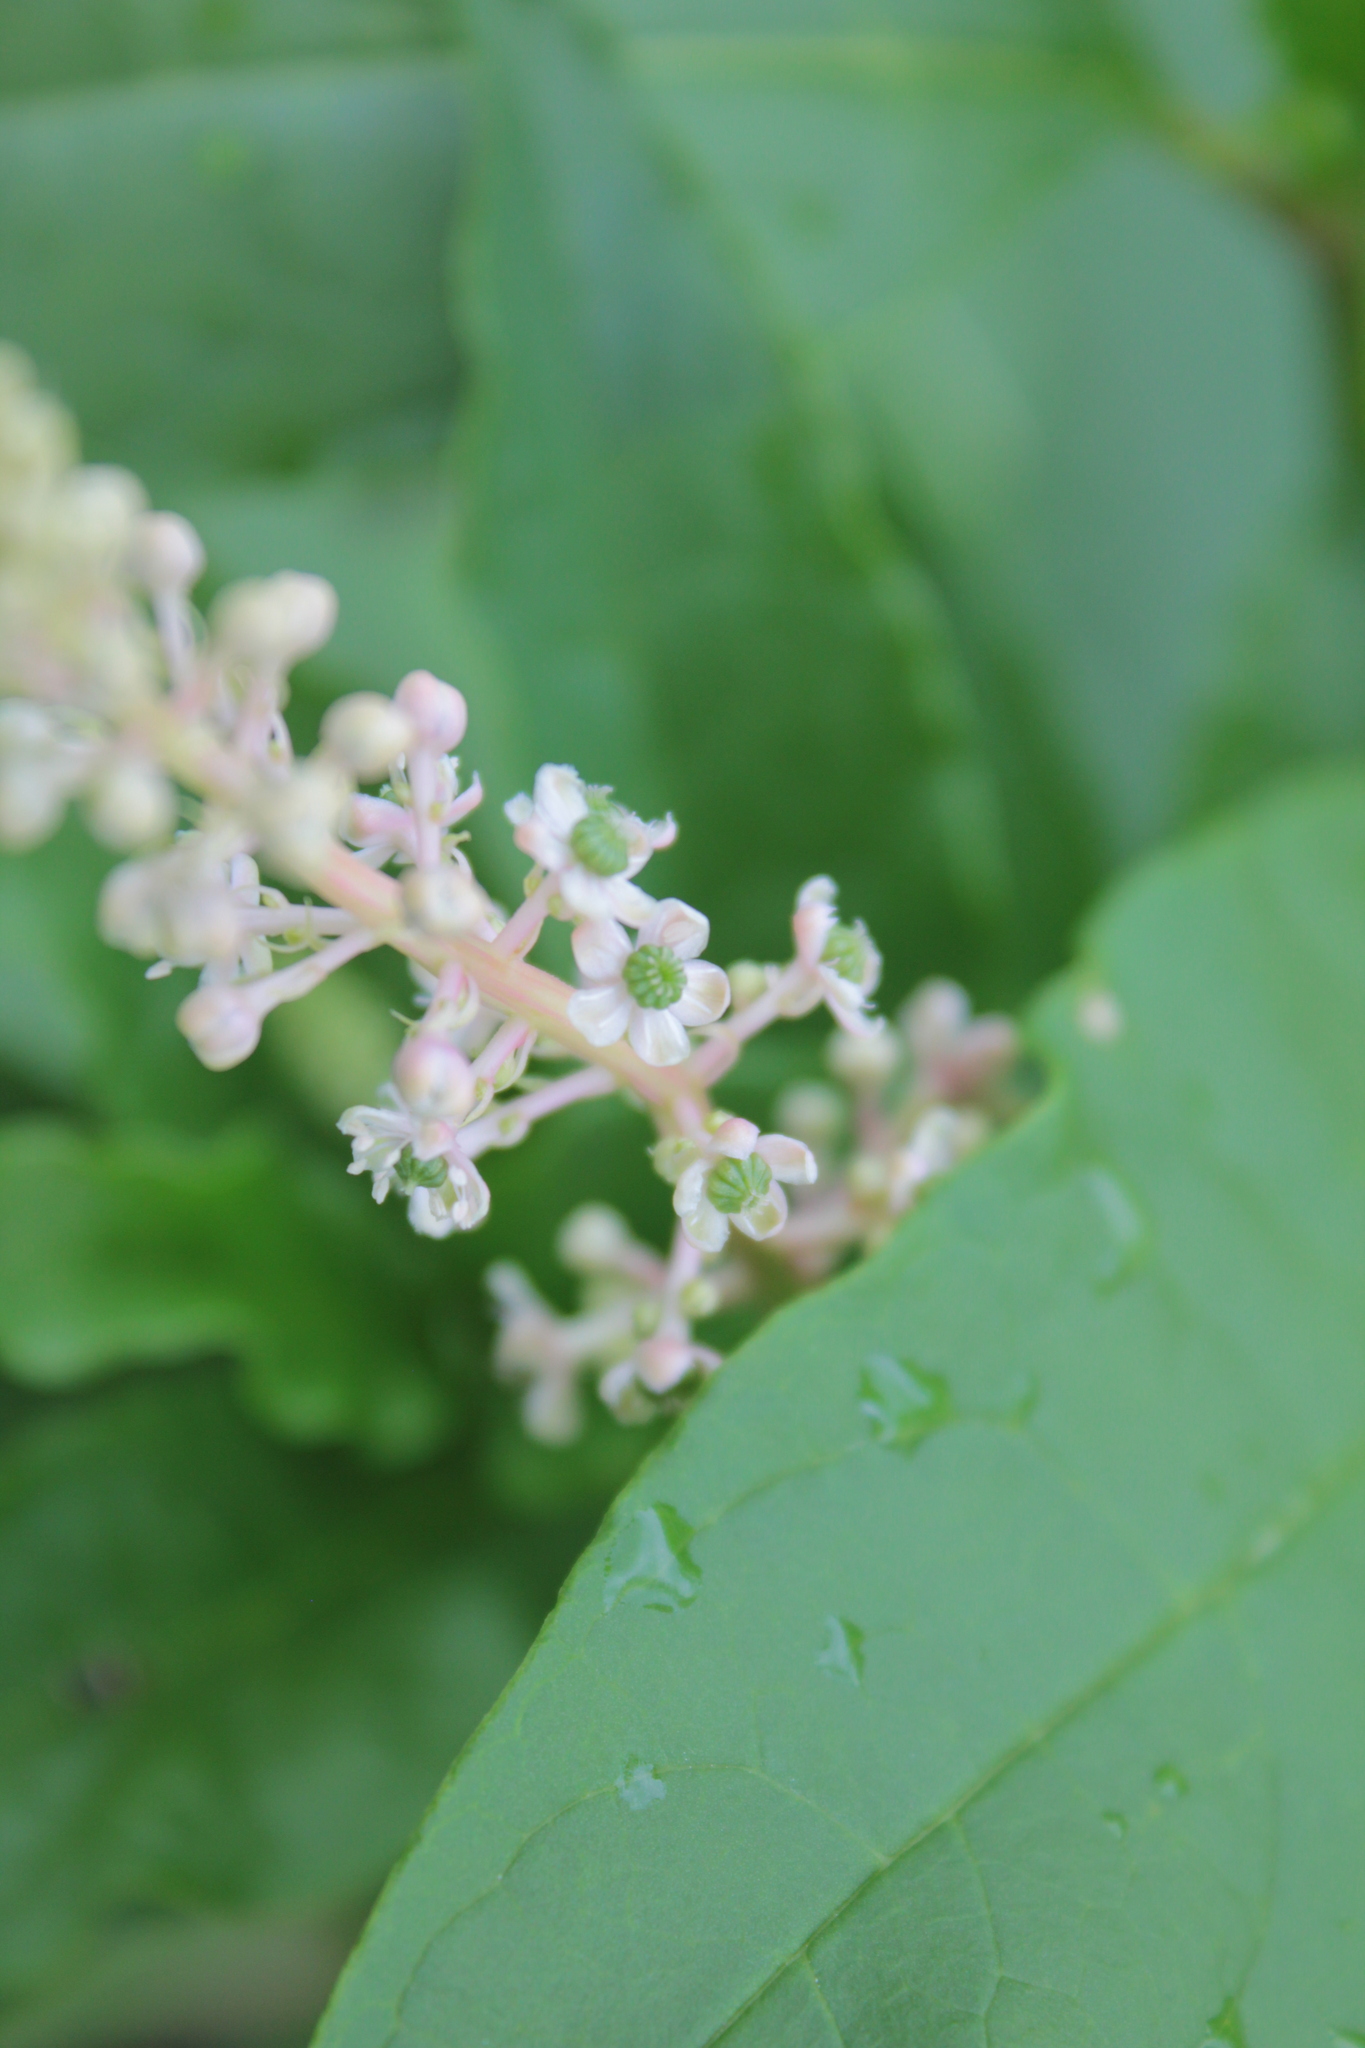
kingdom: Plantae
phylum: Tracheophyta
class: Magnoliopsida
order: Caryophyllales
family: Phytolaccaceae
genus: Phytolacca
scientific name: Phytolacca americana
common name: American pokeweed
